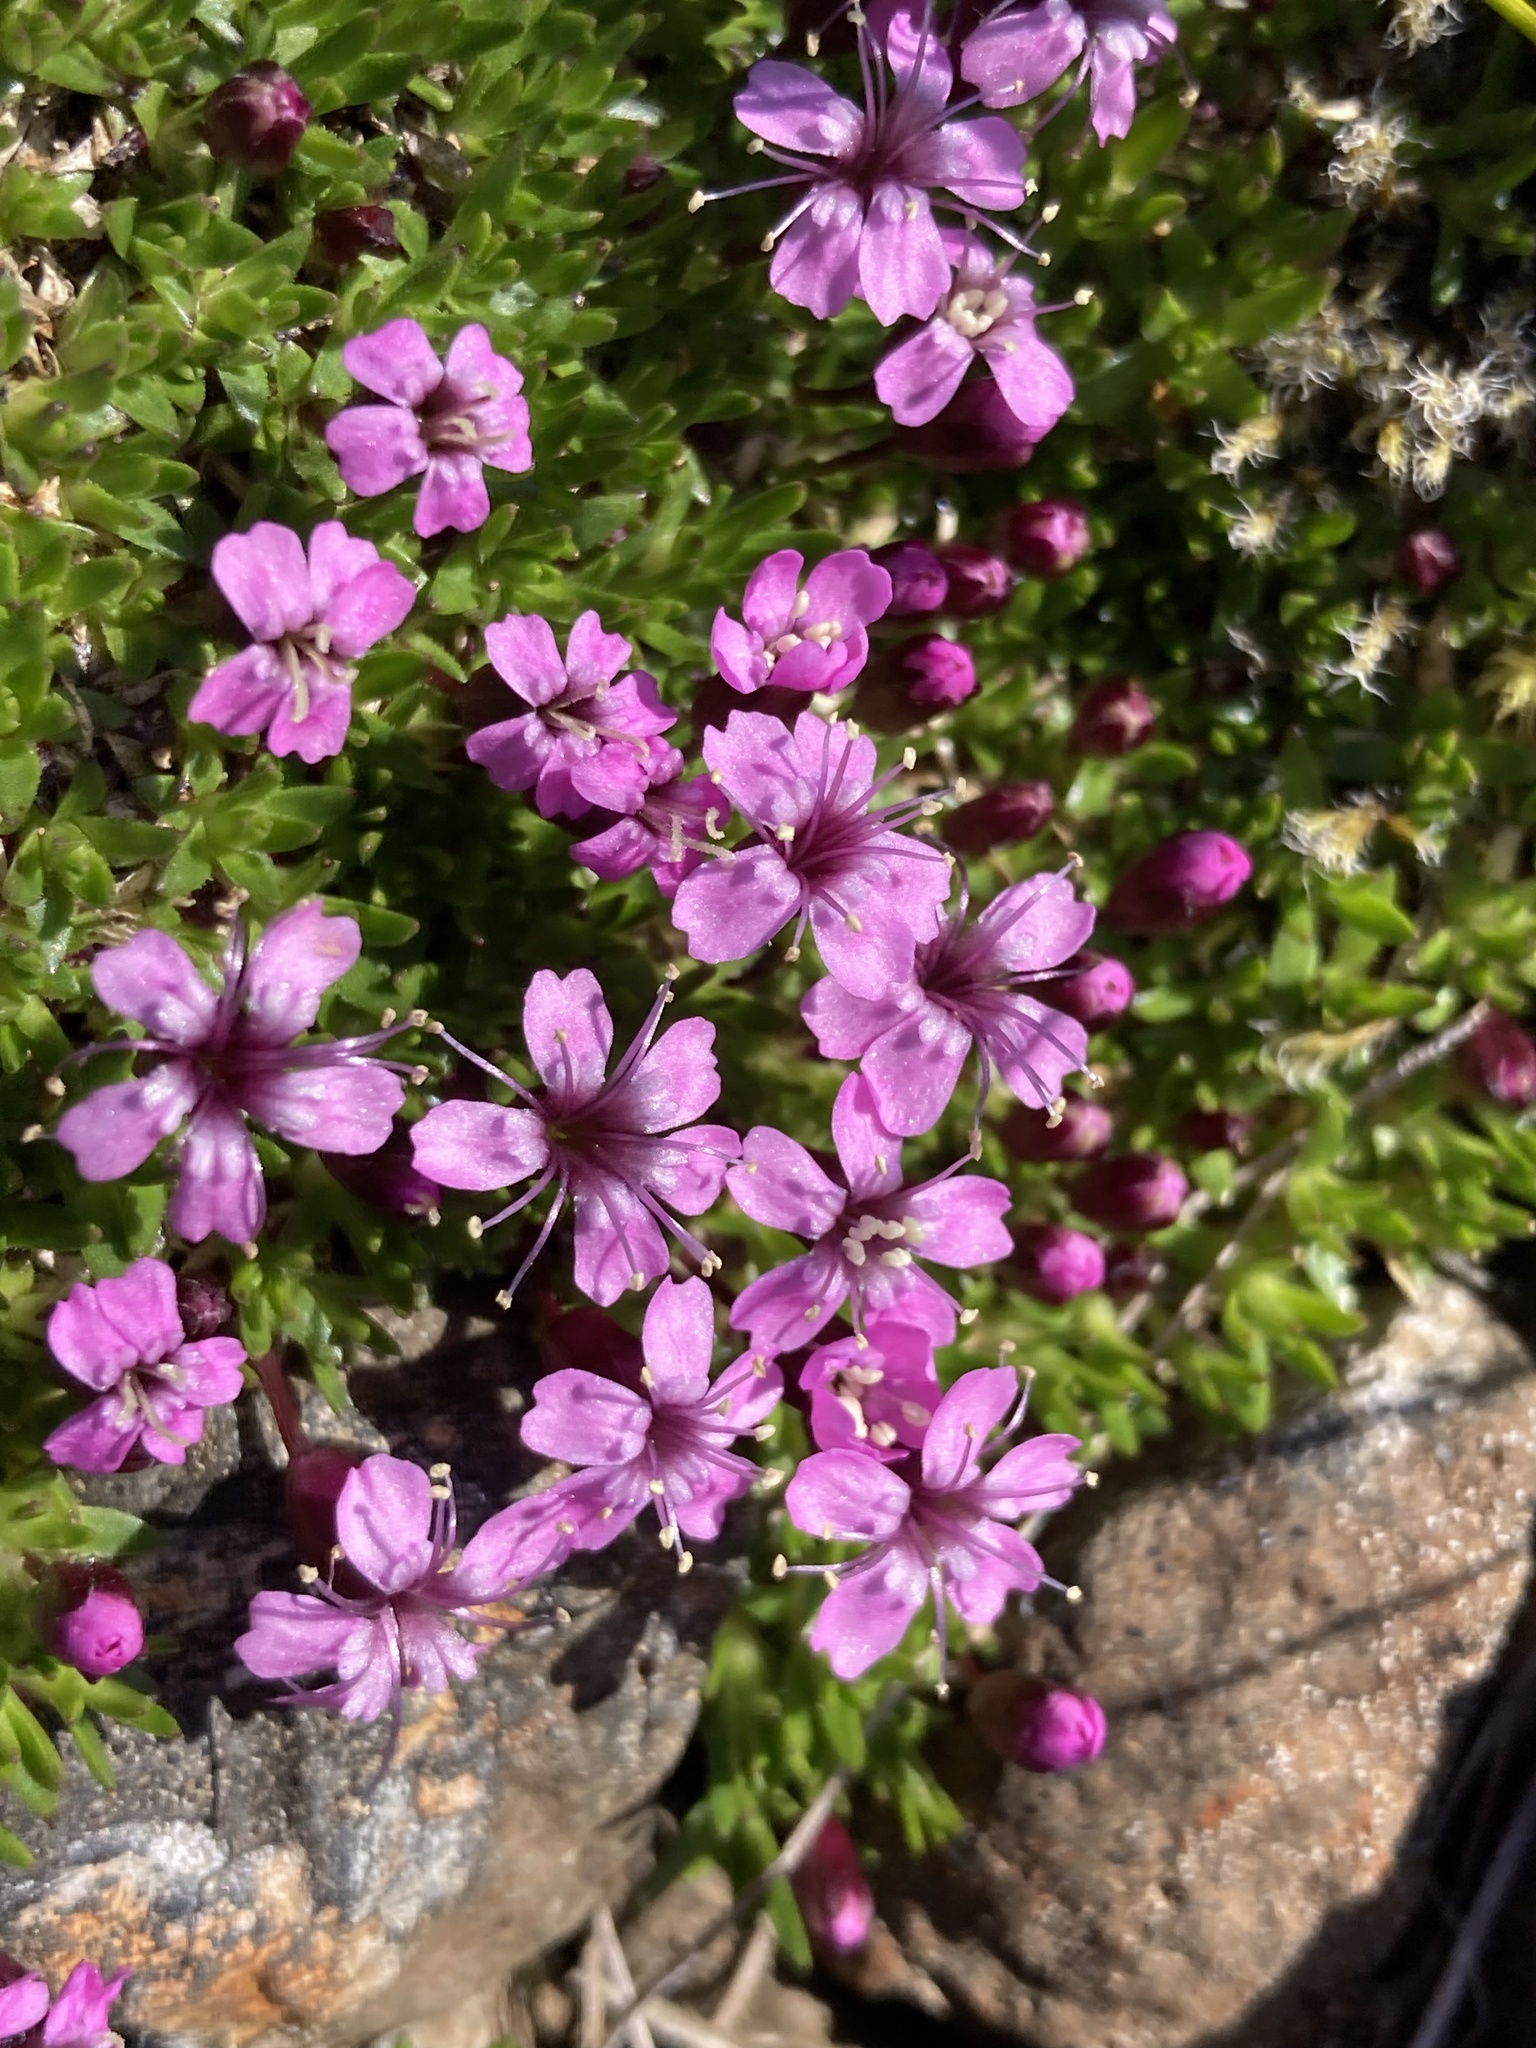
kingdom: Plantae
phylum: Tracheophyta
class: Magnoliopsida
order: Caryophyllales
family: Caryophyllaceae
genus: Silene
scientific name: Silene acaulis
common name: Moss campion
